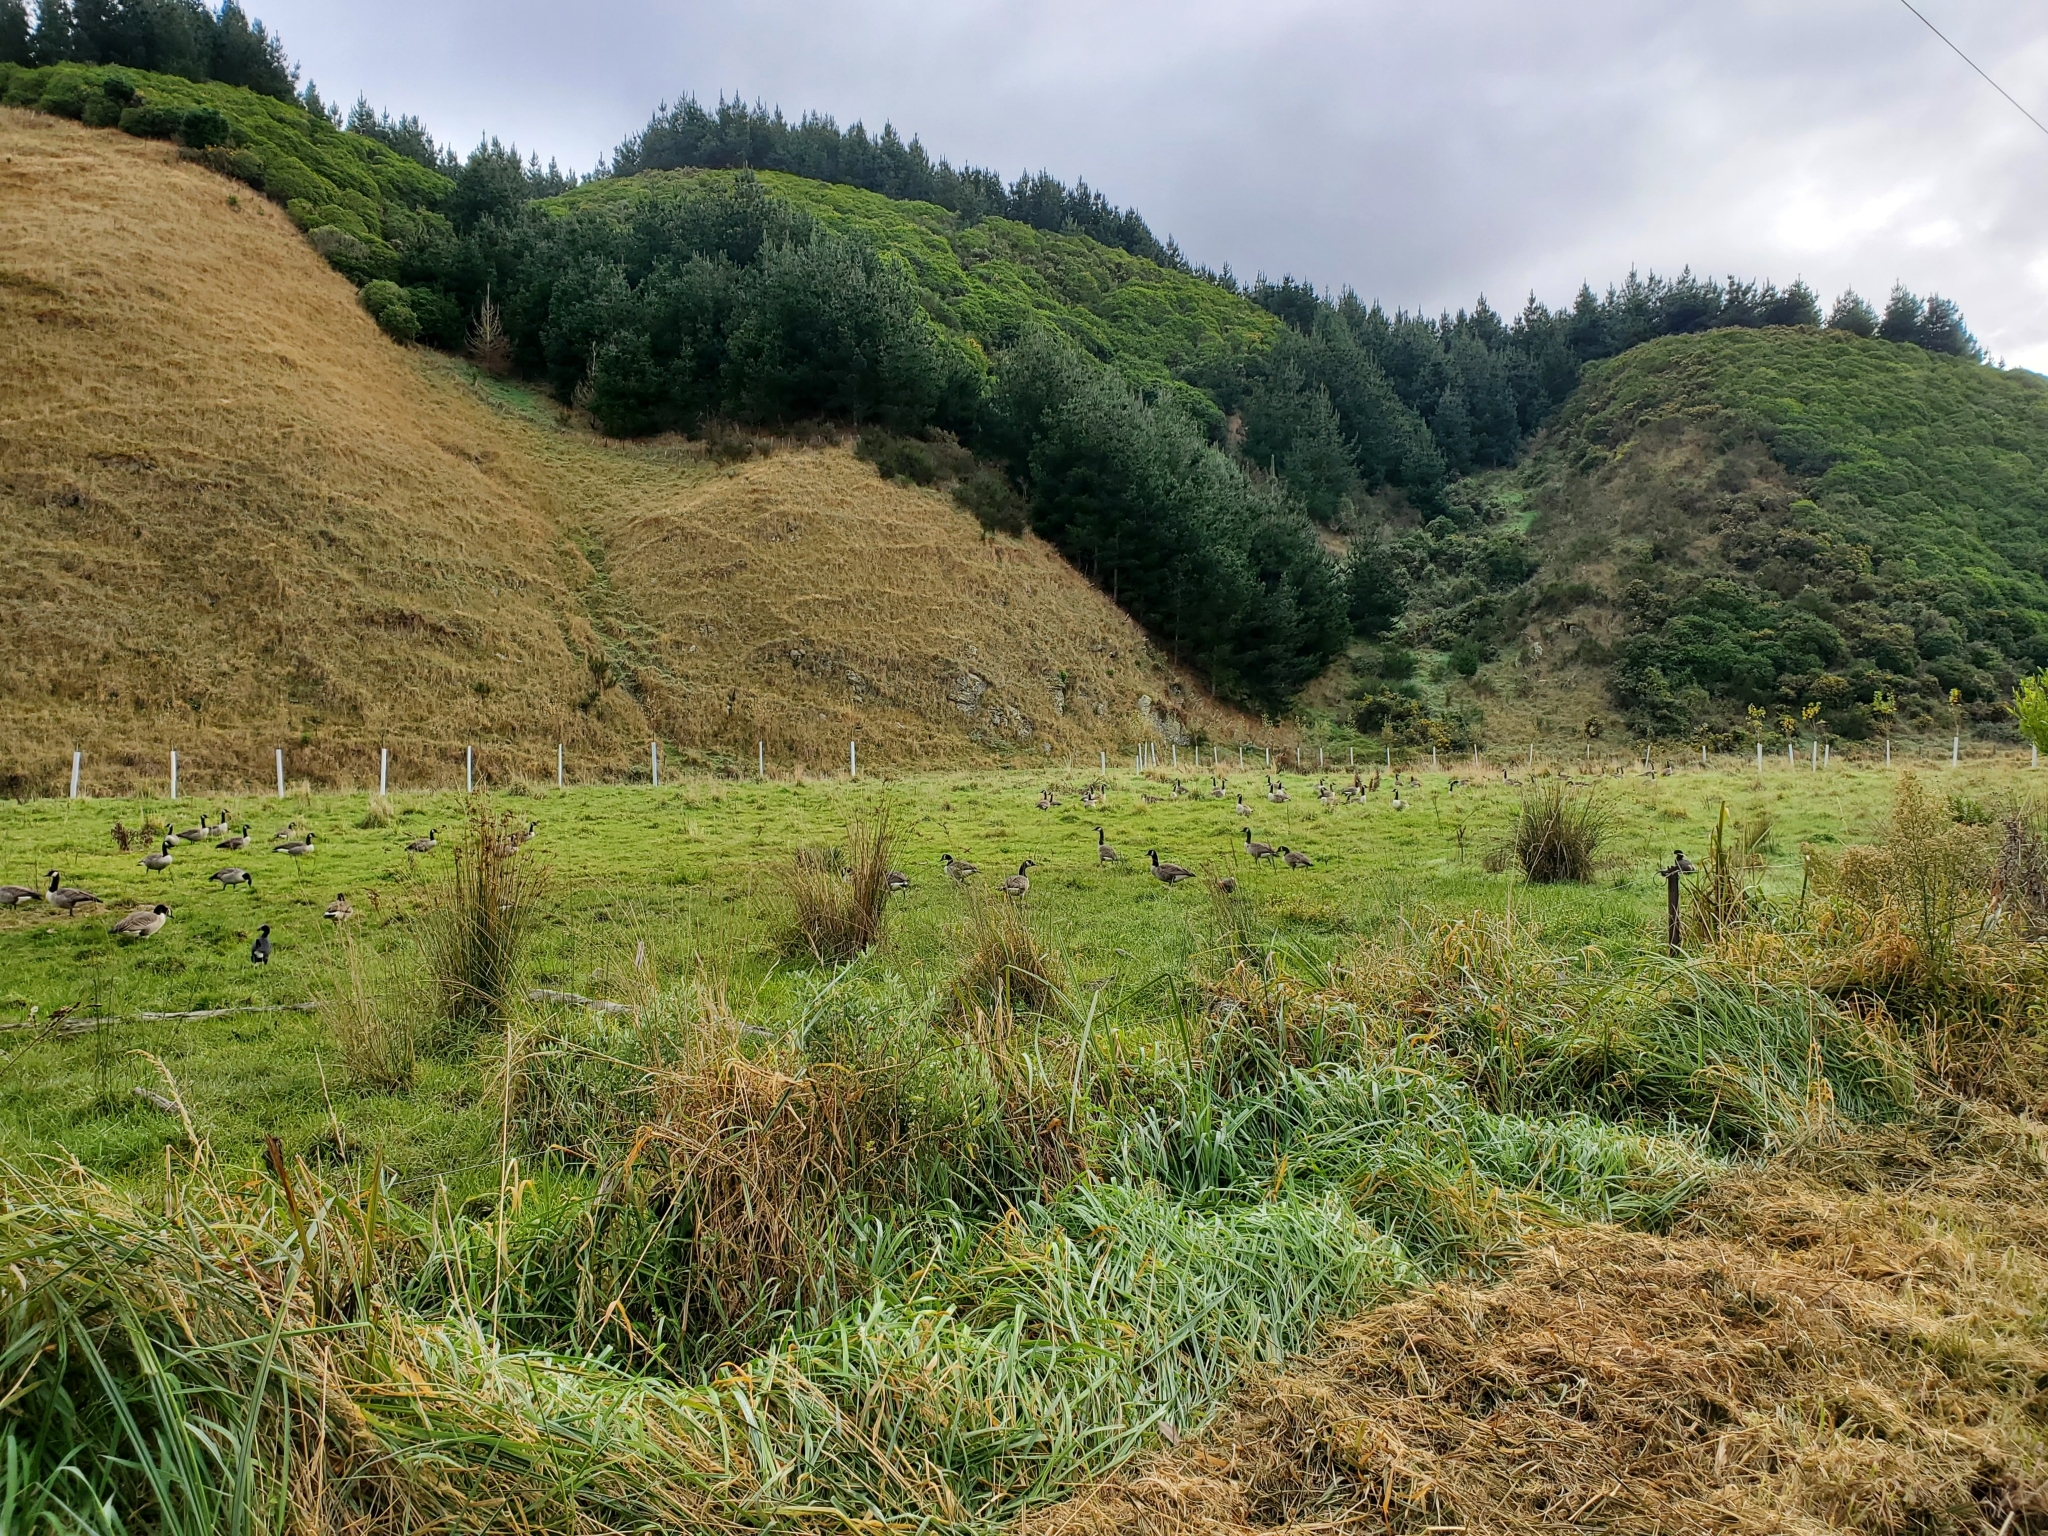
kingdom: Animalia
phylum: Chordata
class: Aves
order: Anseriformes
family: Anatidae
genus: Branta
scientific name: Branta canadensis
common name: Canada goose
